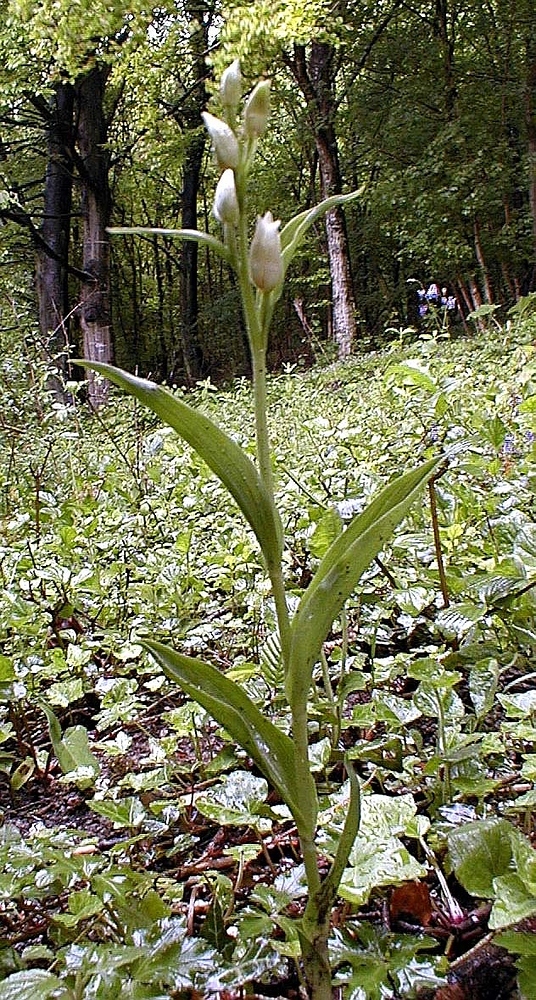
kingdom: Plantae
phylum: Tracheophyta
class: Liliopsida
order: Asparagales
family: Orchidaceae
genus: Cephalanthera
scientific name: Cephalanthera damasonium
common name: White helleborine
